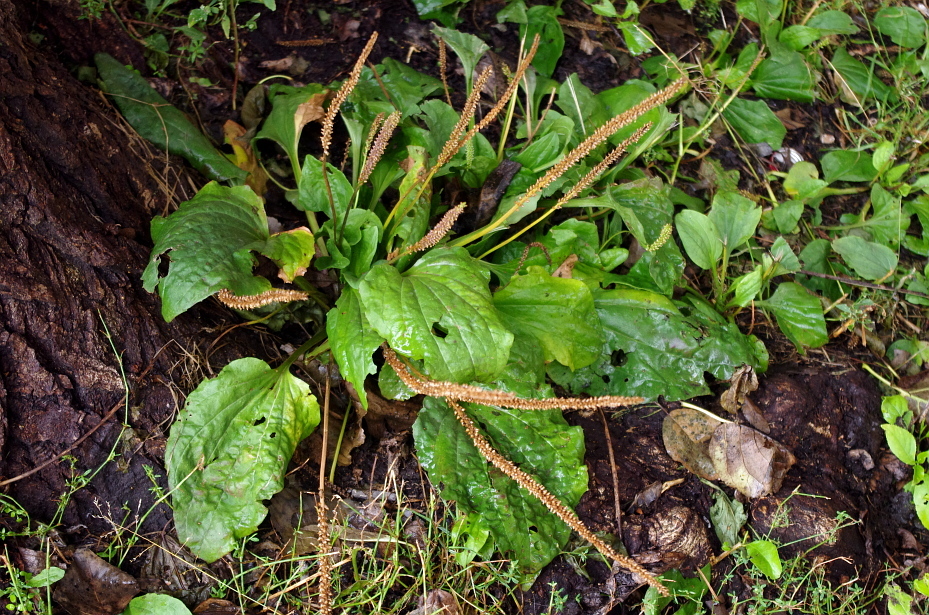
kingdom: Plantae
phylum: Tracheophyta
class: Magnoliopsida
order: Lamiales
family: Plantaginaceae
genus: Plantago
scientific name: Plantago major
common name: Common plantain
